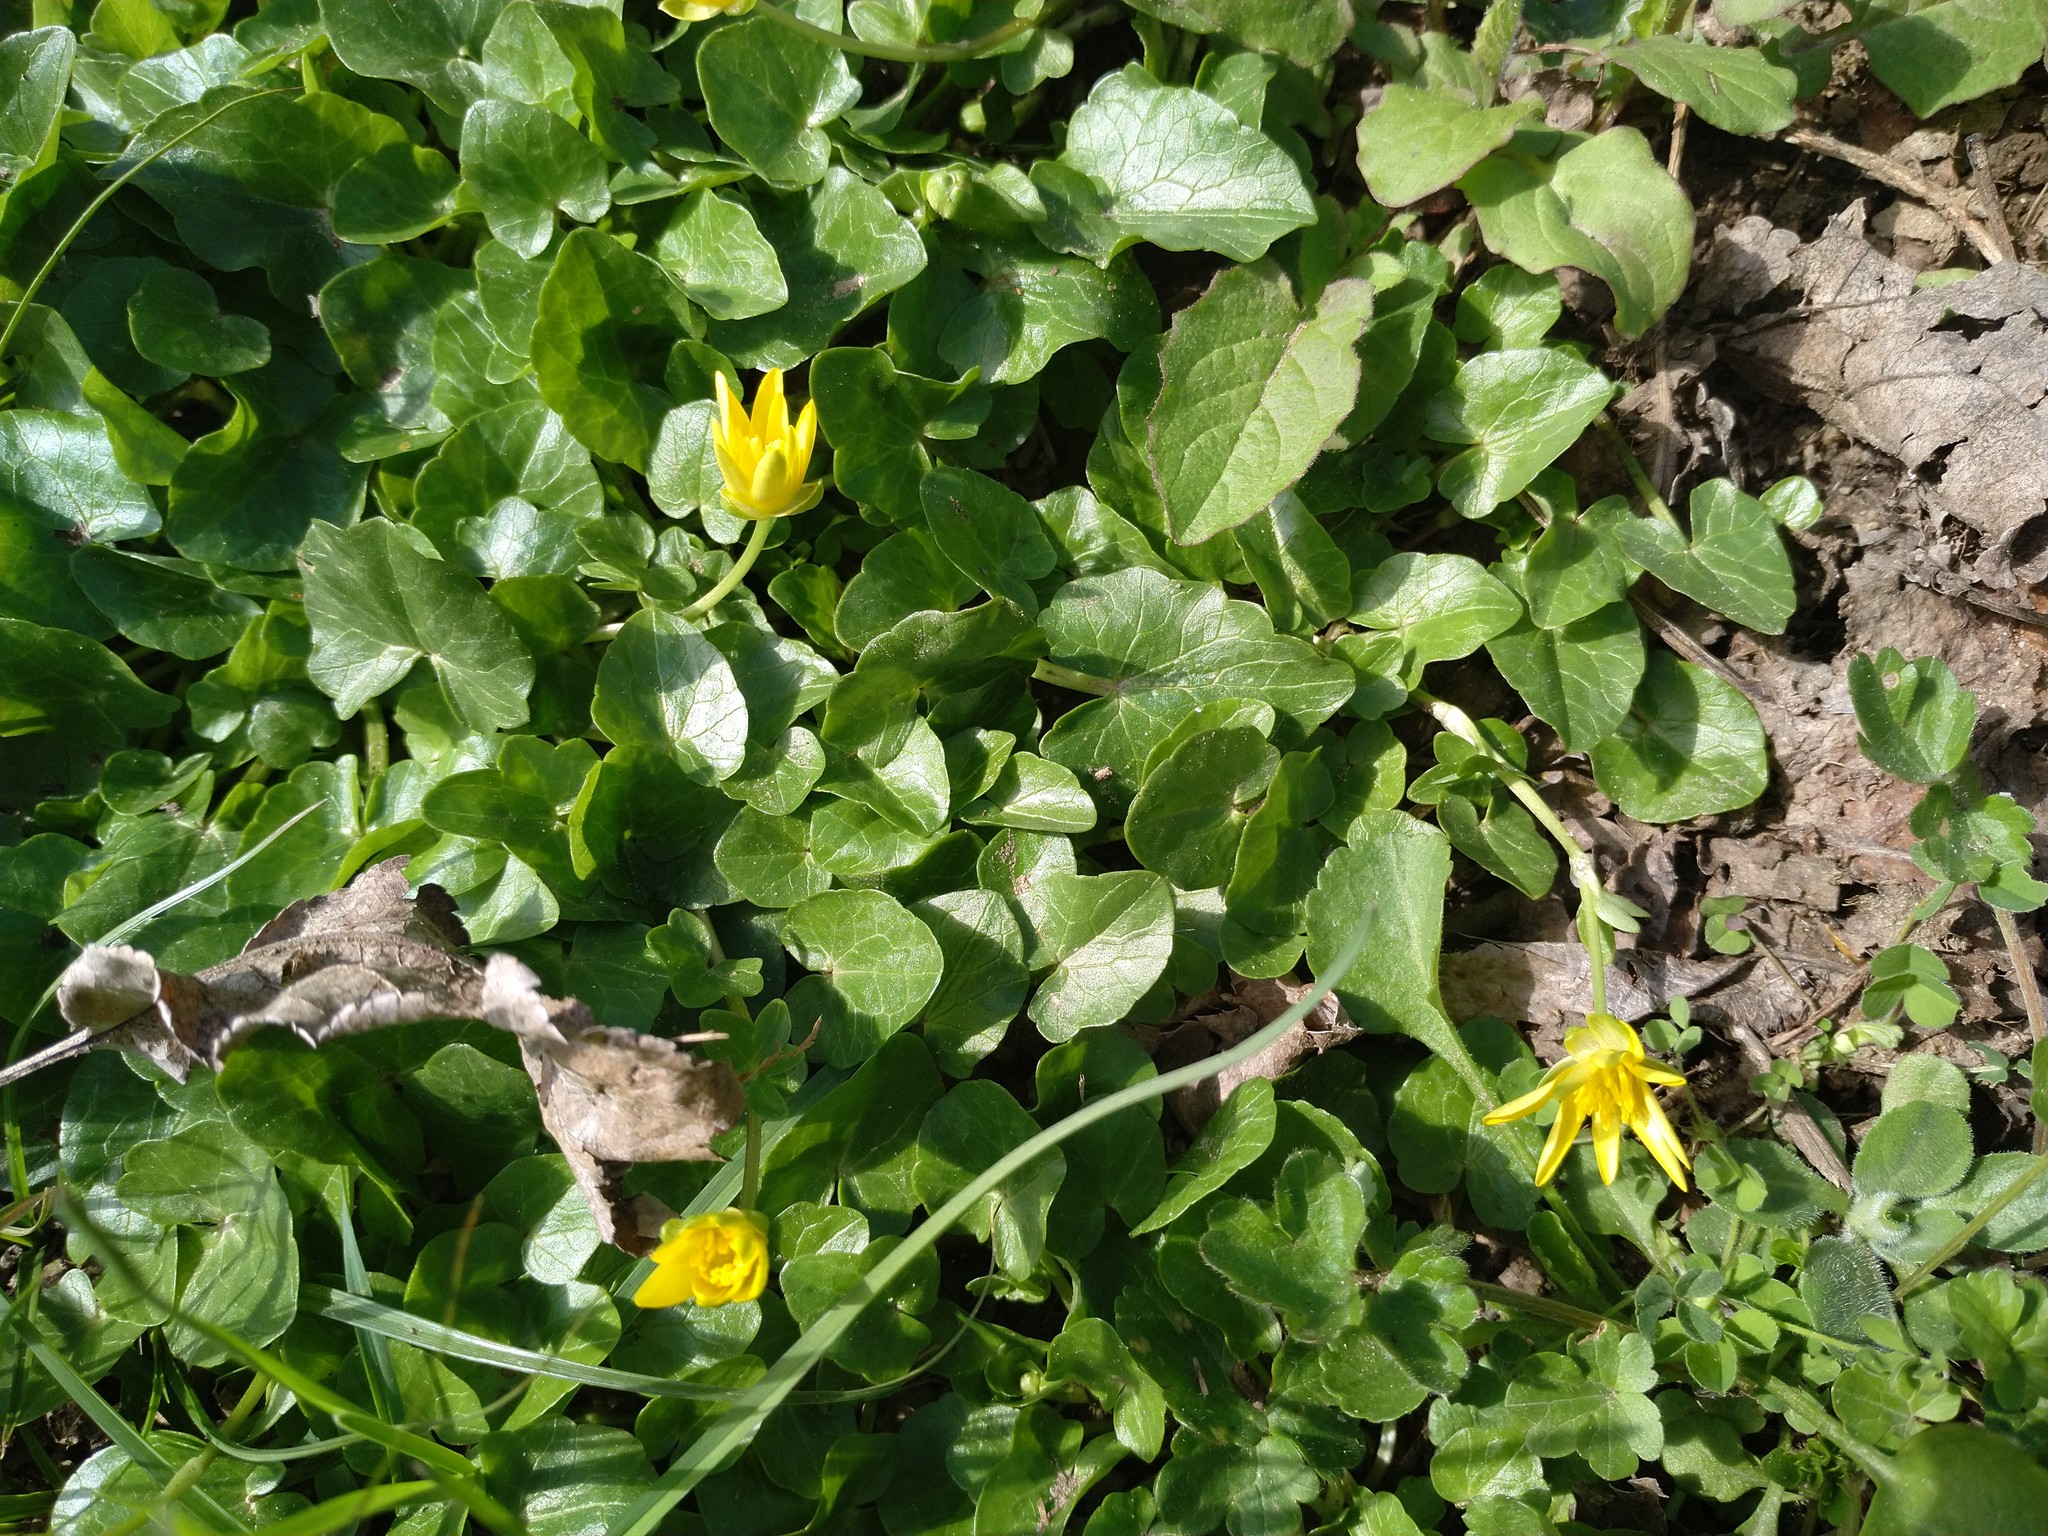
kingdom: Plantae
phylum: Tracheophyta
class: Magnoliopsida
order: Ranunculales
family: Ranunculaceae
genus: Ficaria
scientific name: Ficaria verna
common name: Lesser celandine
